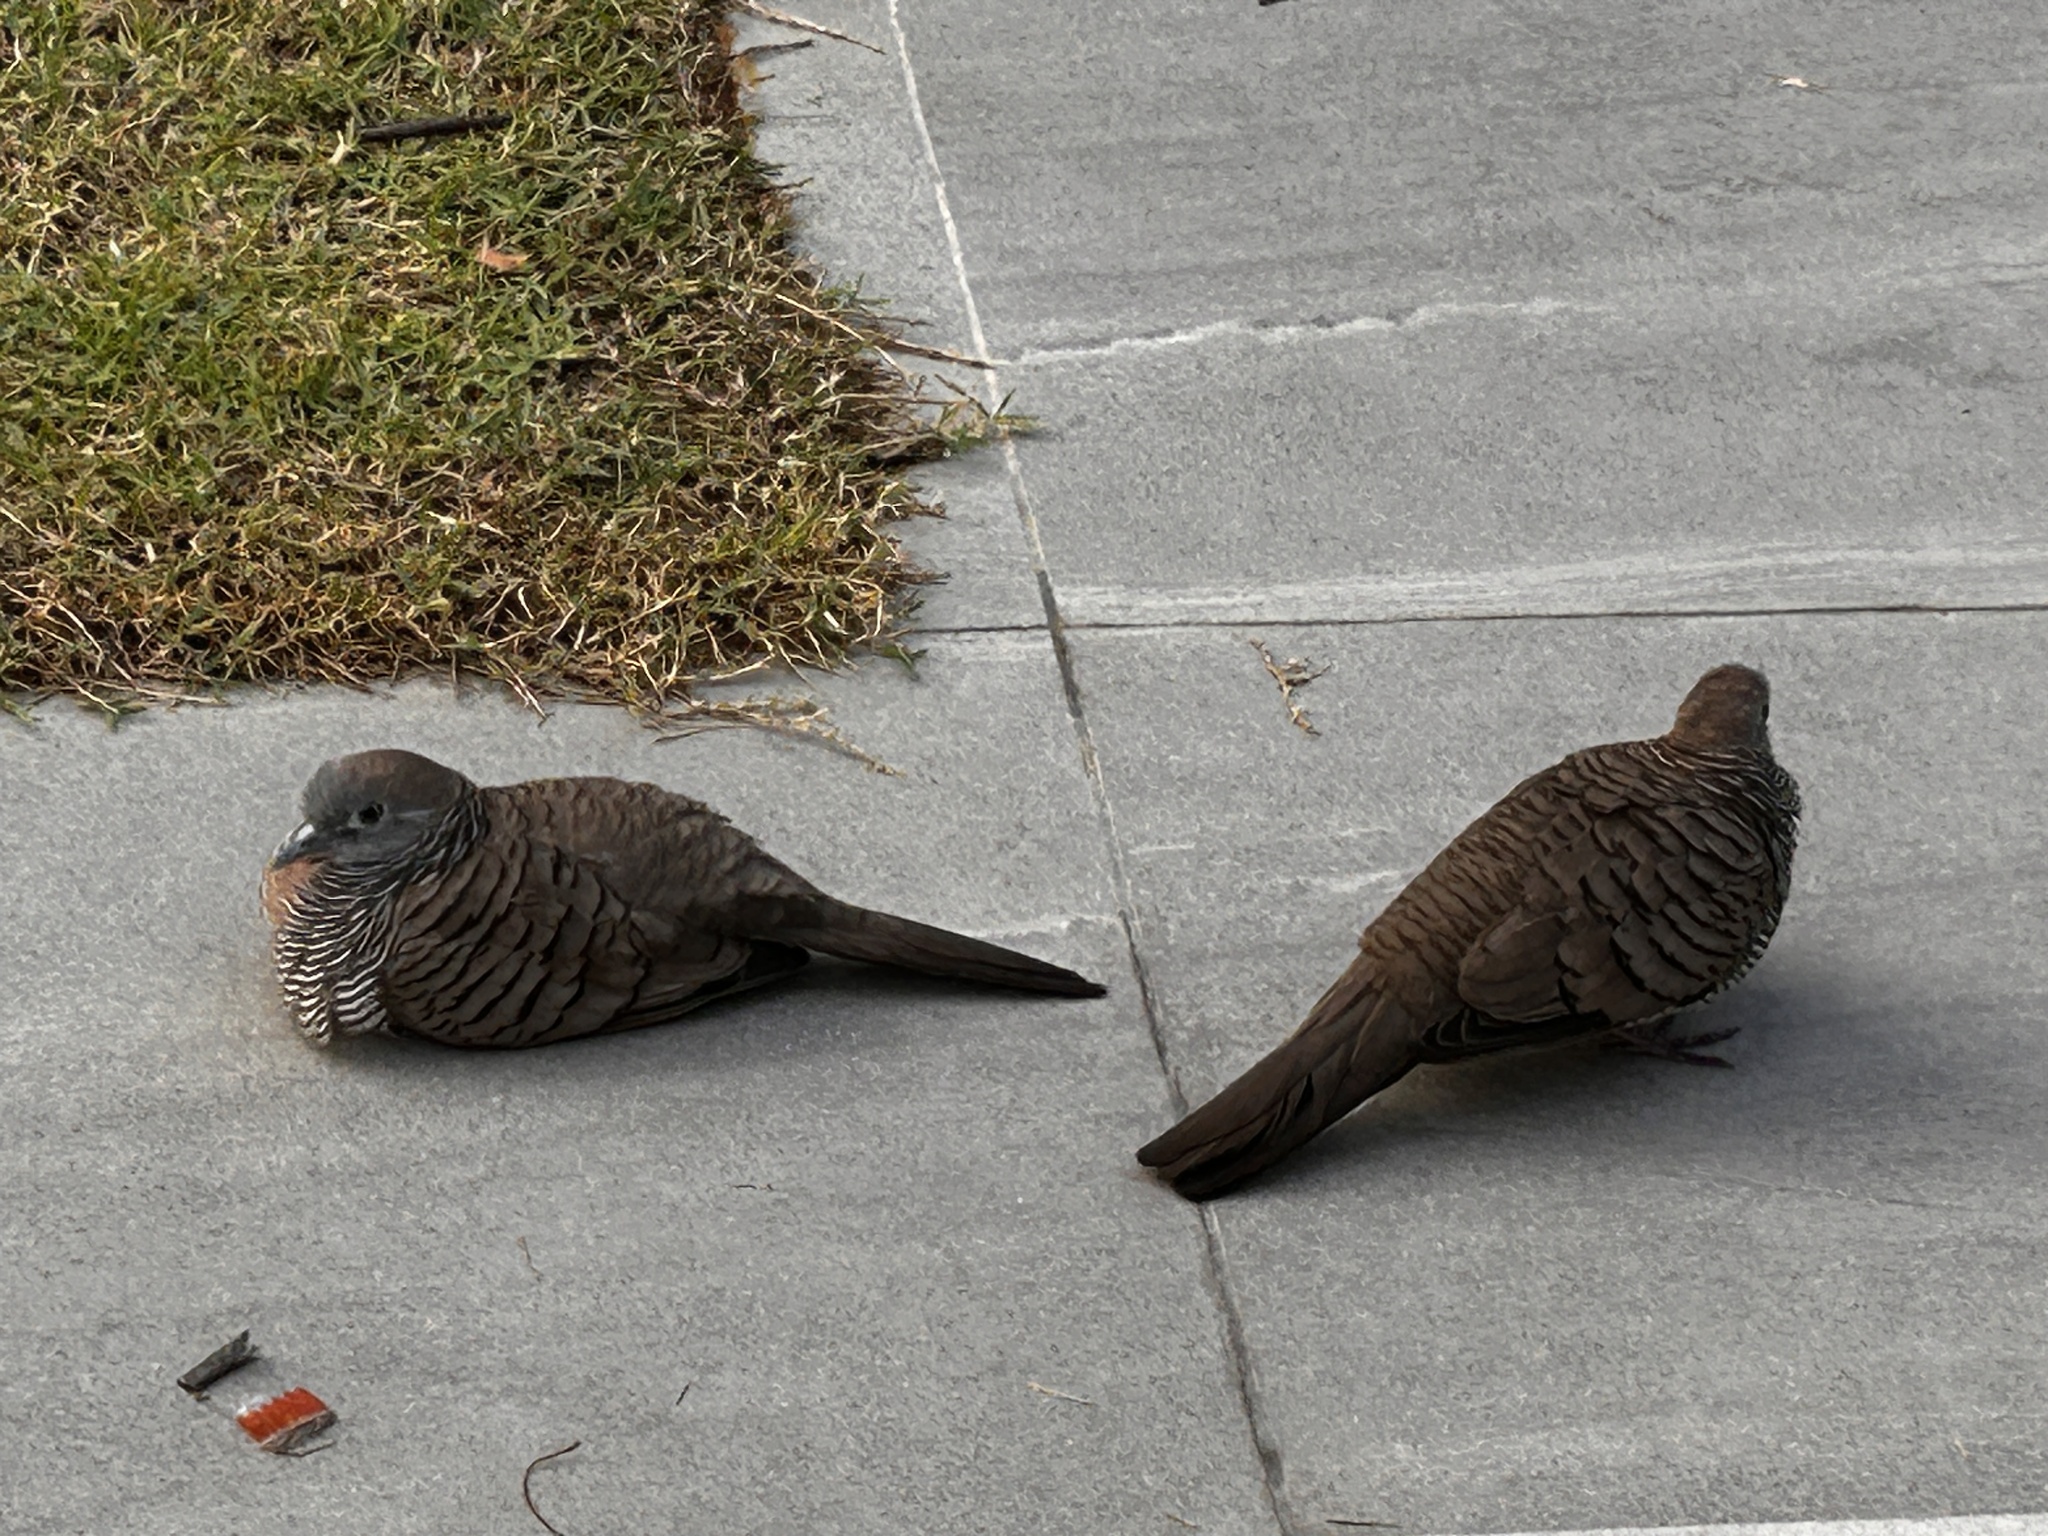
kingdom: Animalia
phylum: Chordata
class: Aves
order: Columbiformes
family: Columbidae
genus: Geopelia
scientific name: Geopelia striata
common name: Zebra dove
